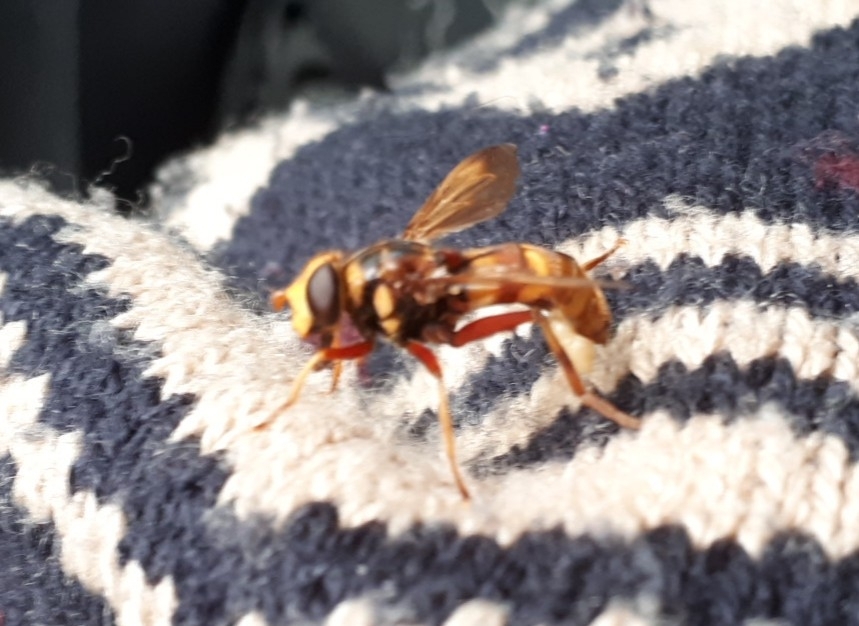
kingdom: Animalia
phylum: Arthropoda
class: Insecta
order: Diptera
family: Syrphidae
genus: Milesia
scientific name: Milesia crabroniformis
